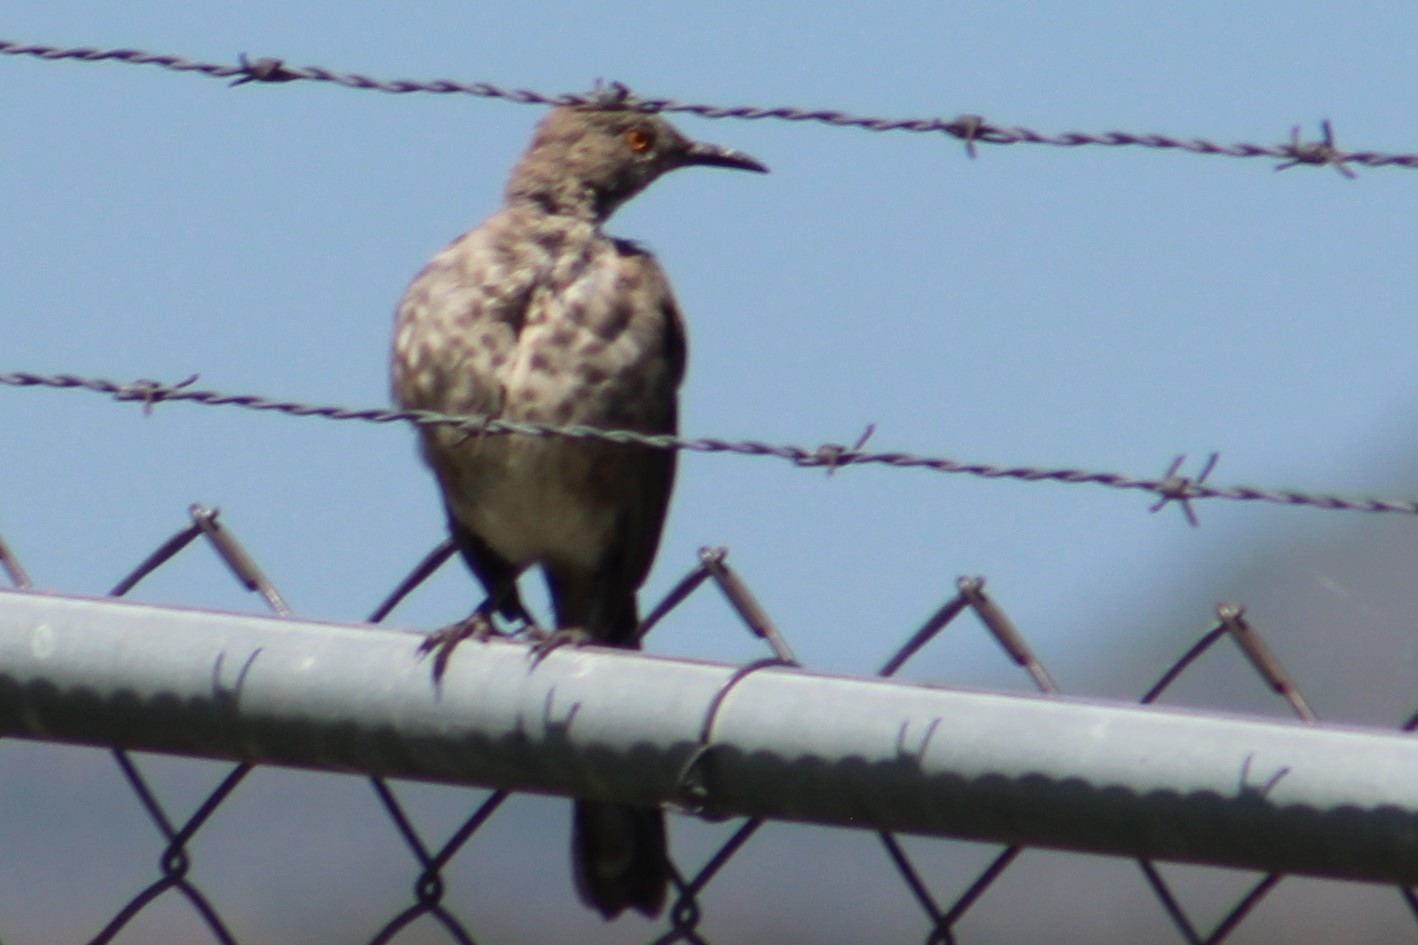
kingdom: Animalia
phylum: Chordata
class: Aves
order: Passeriformes
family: Mimidae
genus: Toxostoma
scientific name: Toxostoma curvirostre
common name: Curve-billed thrasher
